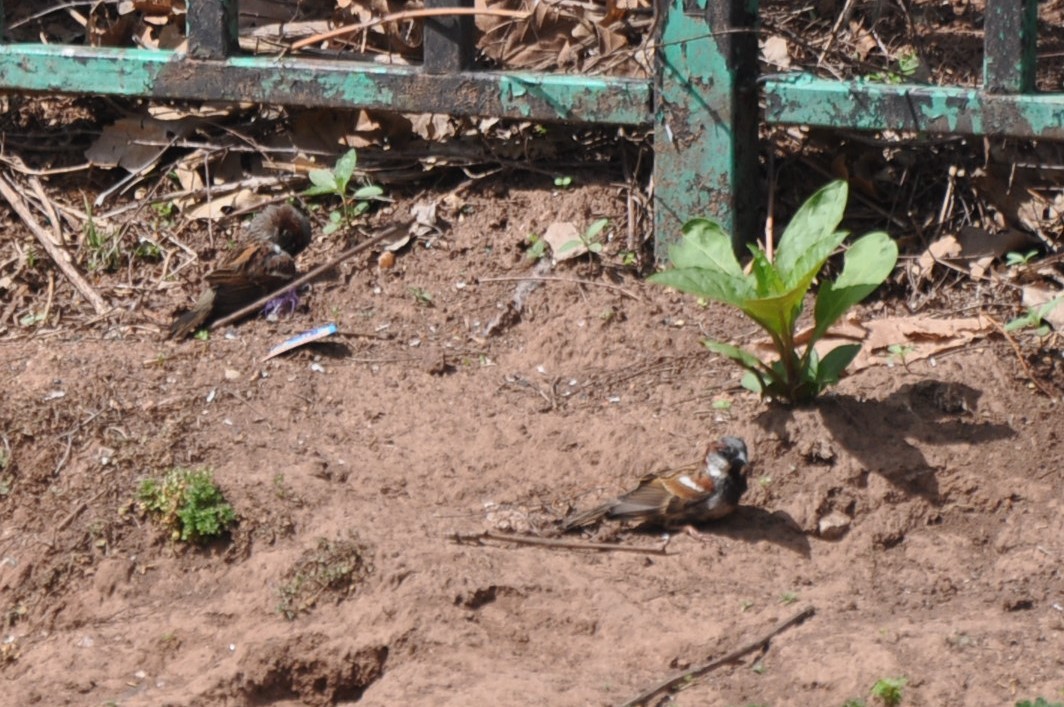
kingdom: Animalia
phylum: Chordata
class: Aves
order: Passeriformes
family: Passeridae
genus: Passer
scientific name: Passer domesticus
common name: House sparrow
